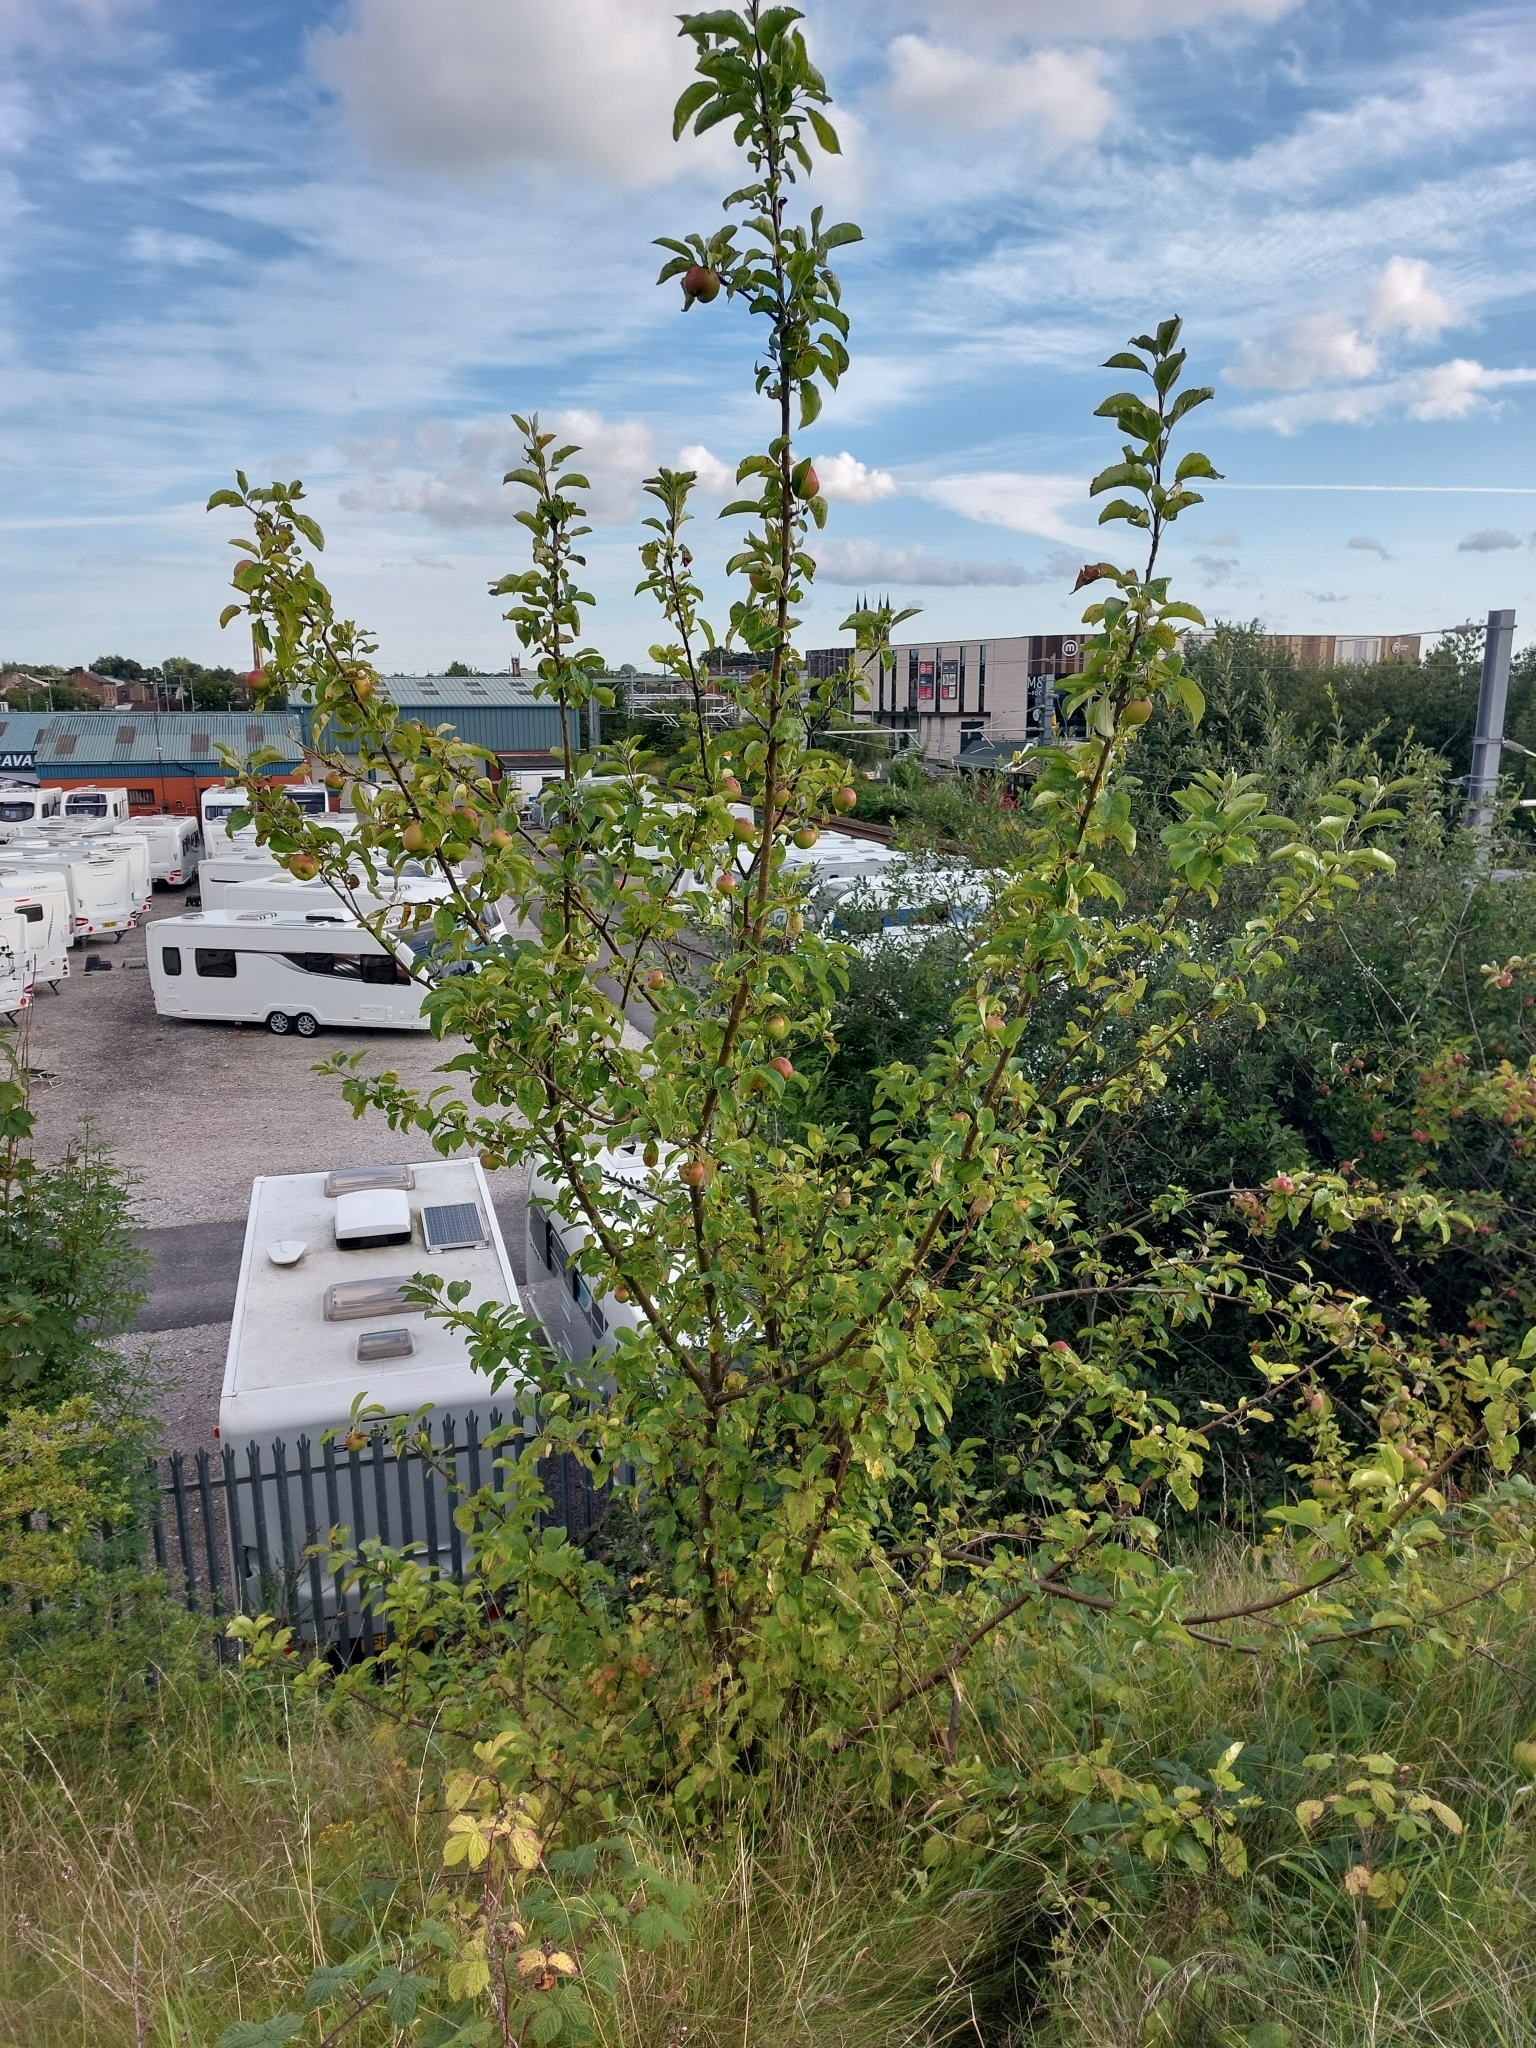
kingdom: Plantae
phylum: Tracheophyta
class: Magnoliopsida
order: Rosales
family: Rosaceae
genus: Malus
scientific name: Malus domestica
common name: Apple
